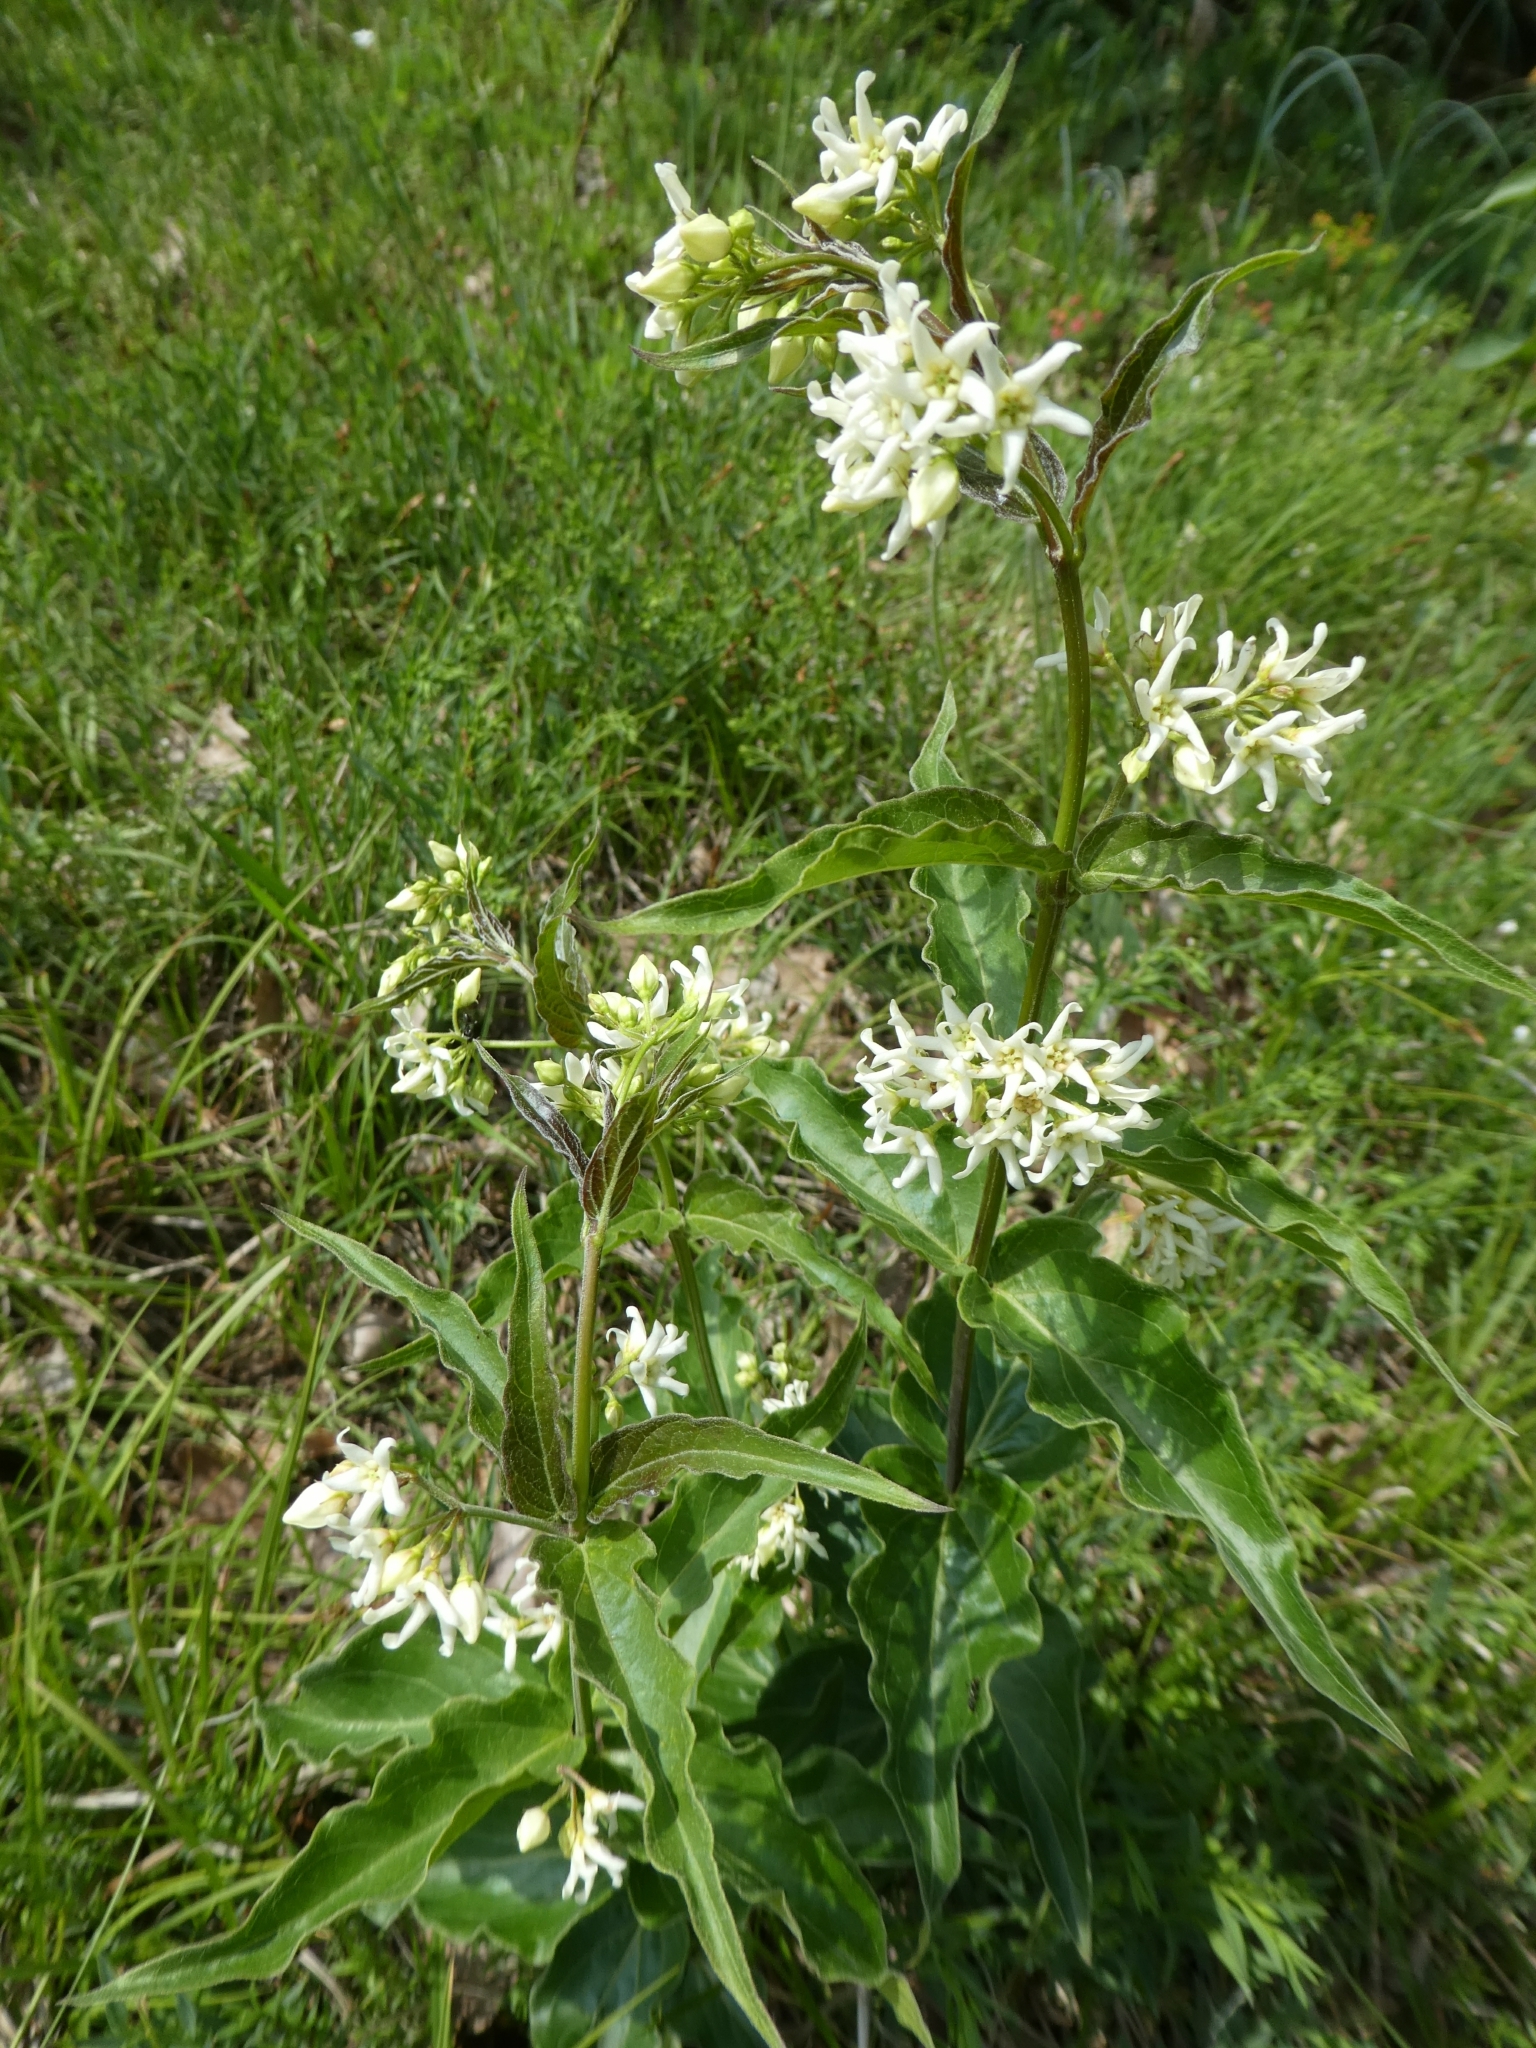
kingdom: Plantae
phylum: Tracheophyta
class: Magnoliopsida
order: Gentianales
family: Apocynaceae
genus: Vincetoxicum
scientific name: Vincetoxicum hirundinaria
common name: White swallowwort
